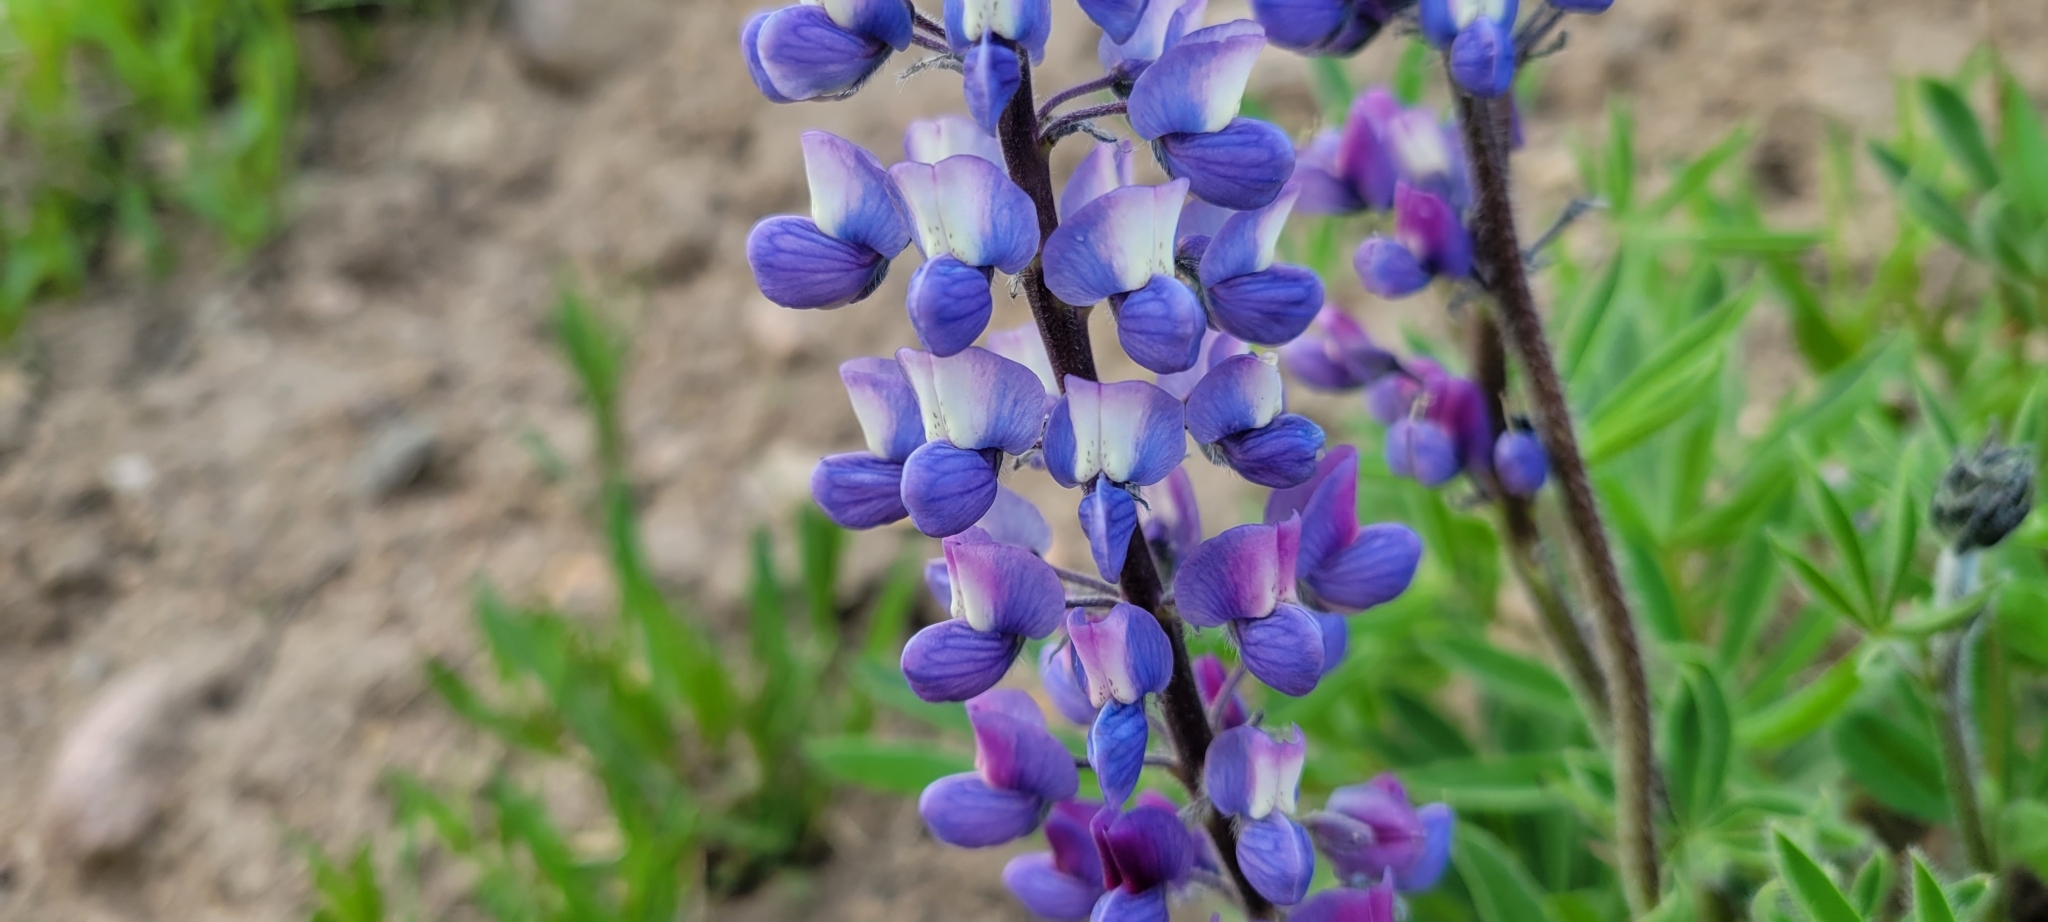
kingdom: Plantae
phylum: Tracheophyta
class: Magnoliopsida
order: Fabales
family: Fabaceae
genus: Lupinus
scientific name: Lupinus polyphyllus
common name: Garden lupin
